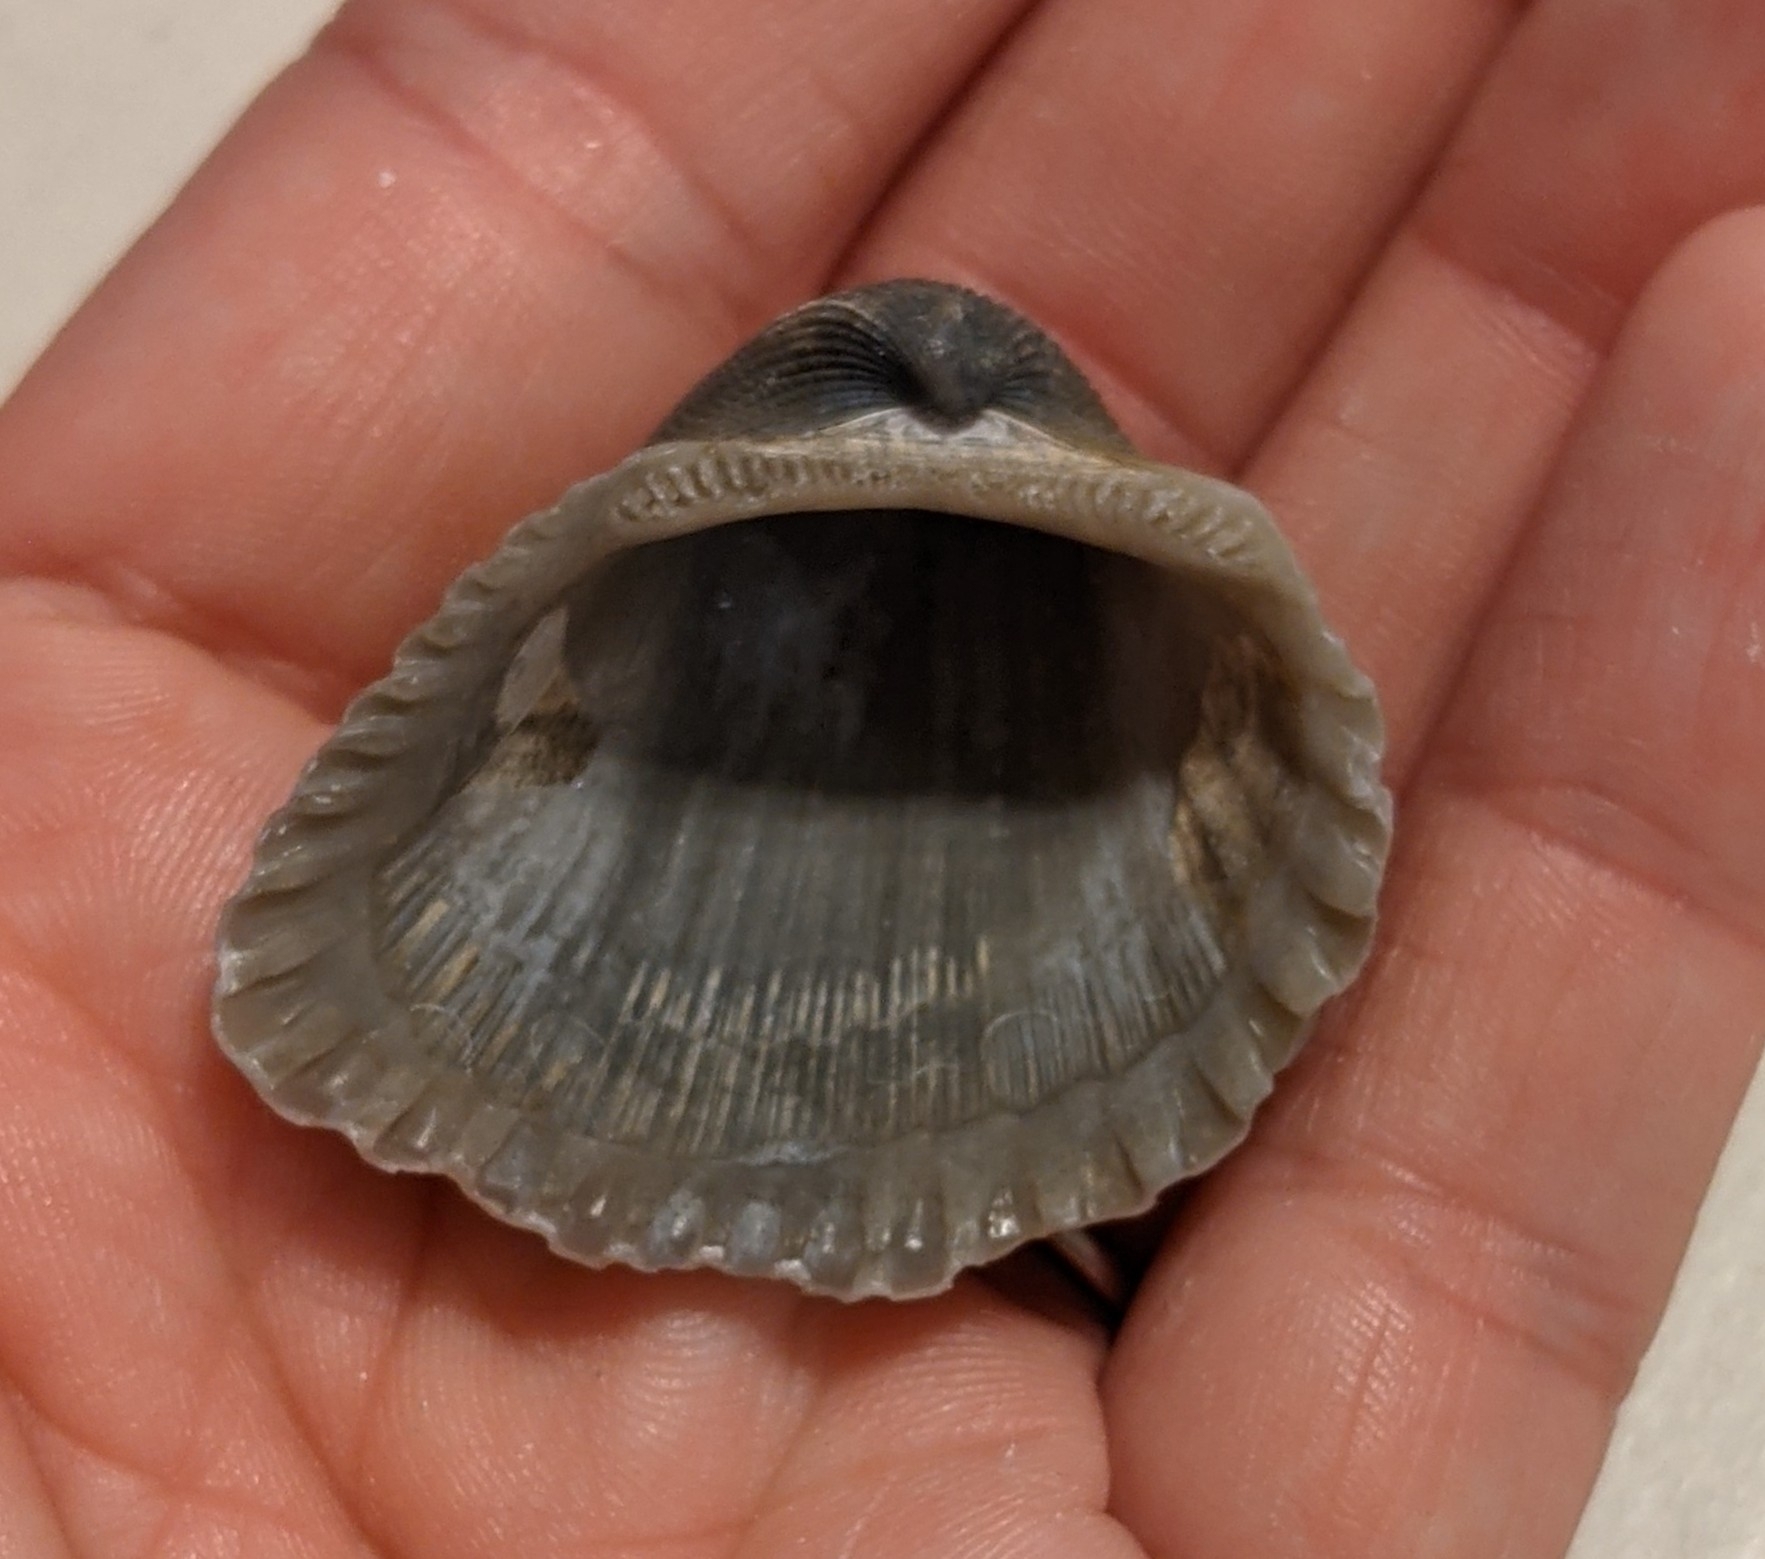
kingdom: Animalia
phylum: Mollusca
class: Bivalvia
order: Arcida
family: Arcidae
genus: Anadara
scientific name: Anadara brasiliana
